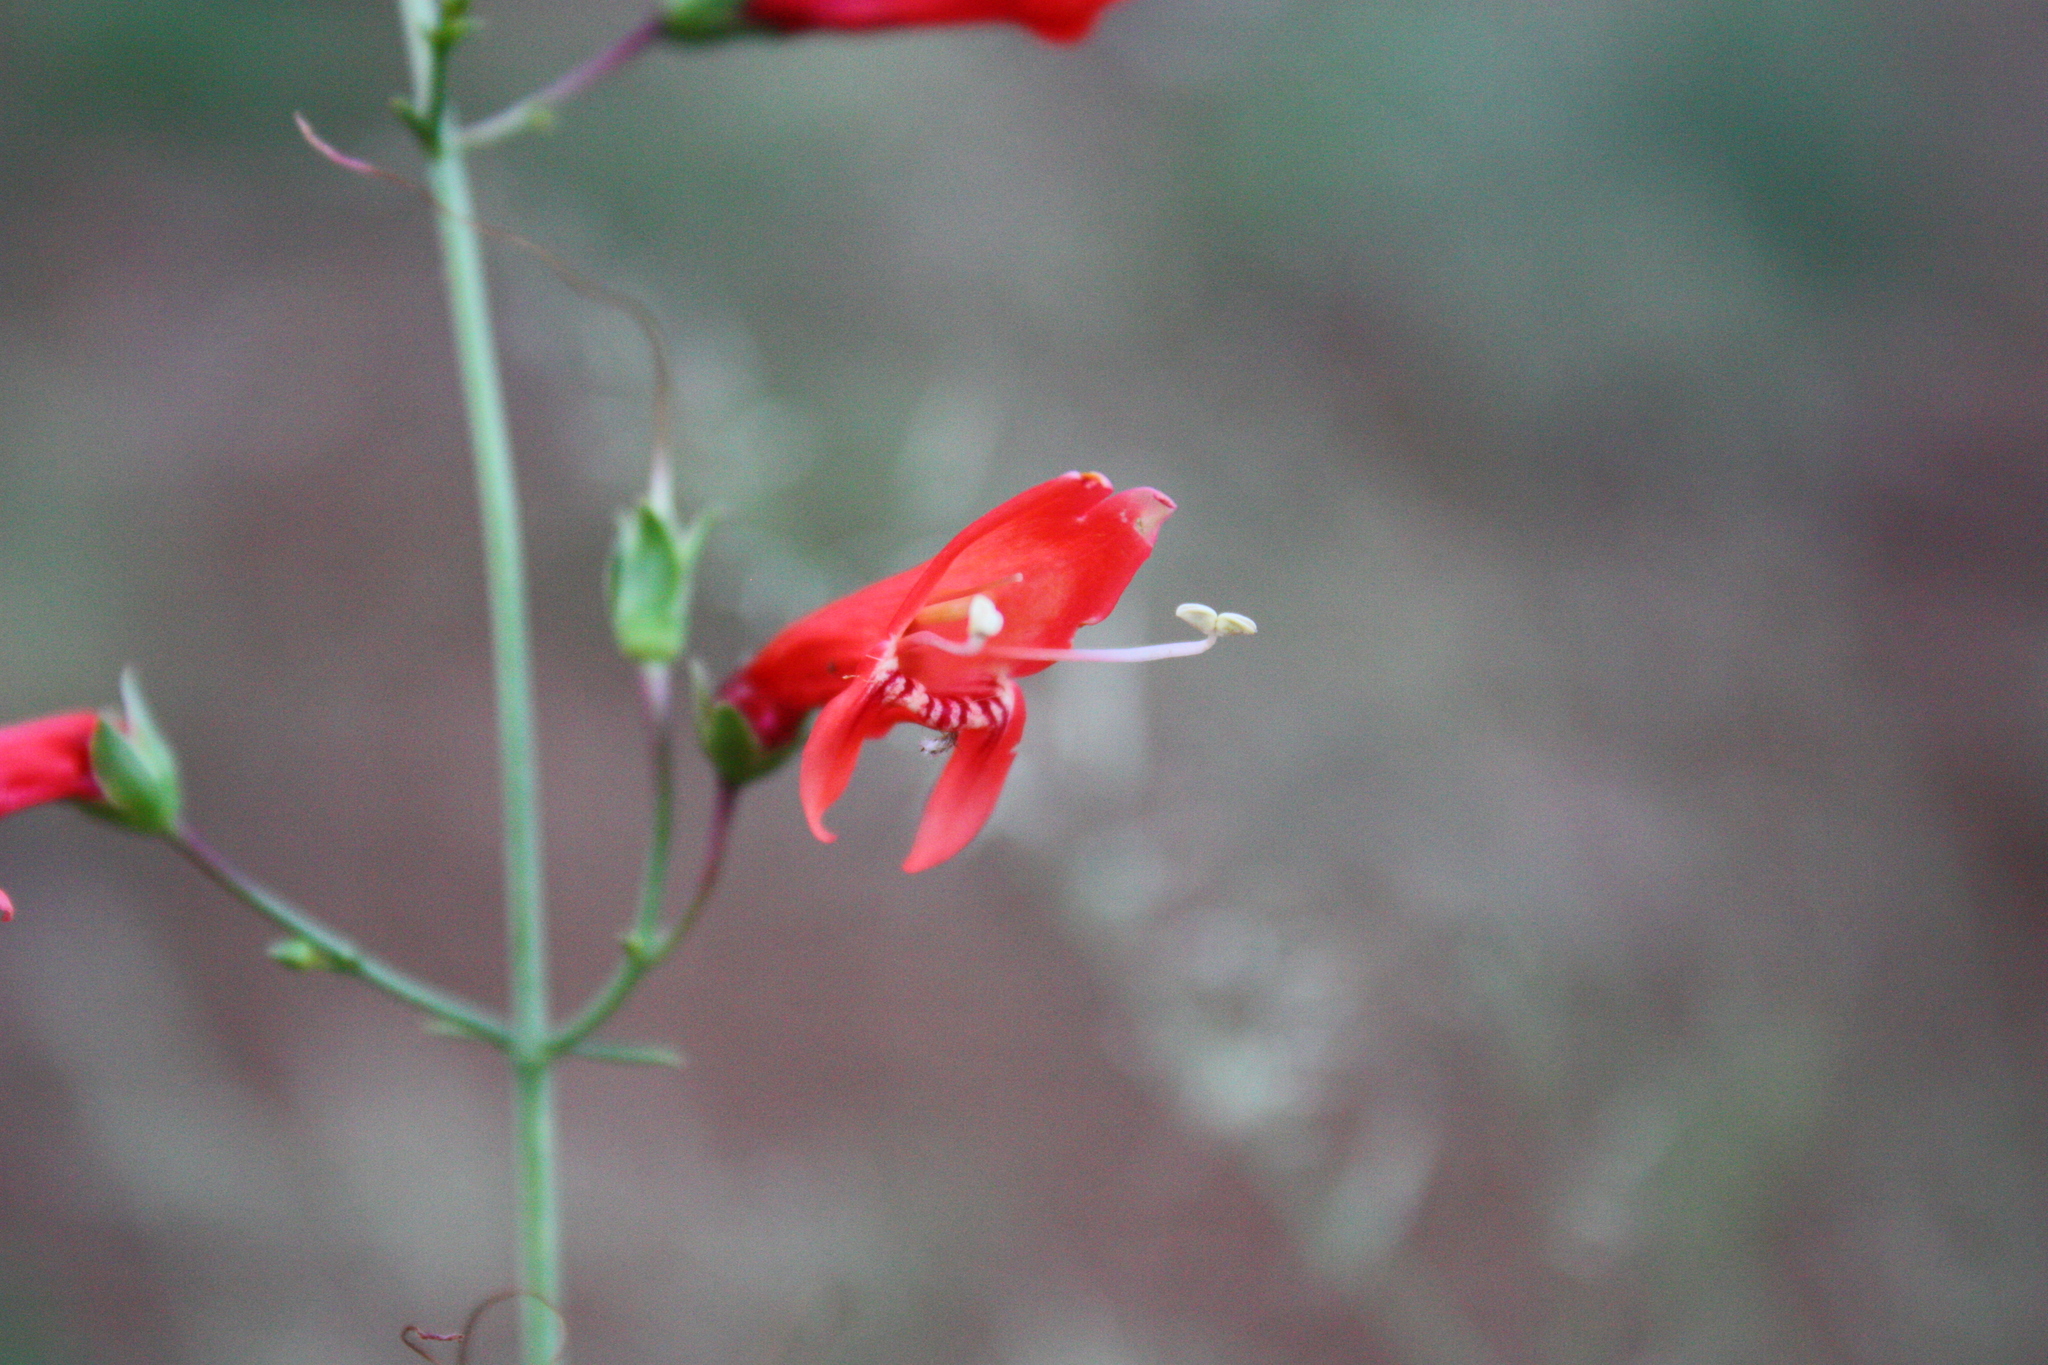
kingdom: Plantae
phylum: Tracheophyta
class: Magnoliopsida
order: Lamiales
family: Plantaginaceae
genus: Penstemon
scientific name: Penstemon barbatus
